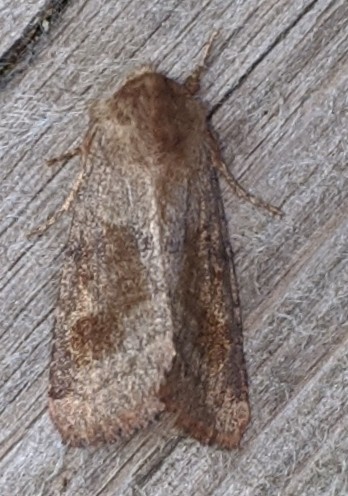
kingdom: Animalia
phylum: Arthropoda
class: Insecta
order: Lepidoptera
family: Noctuidae
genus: Nephelodes
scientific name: Nephelodes minians
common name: Bronzed cutworm
